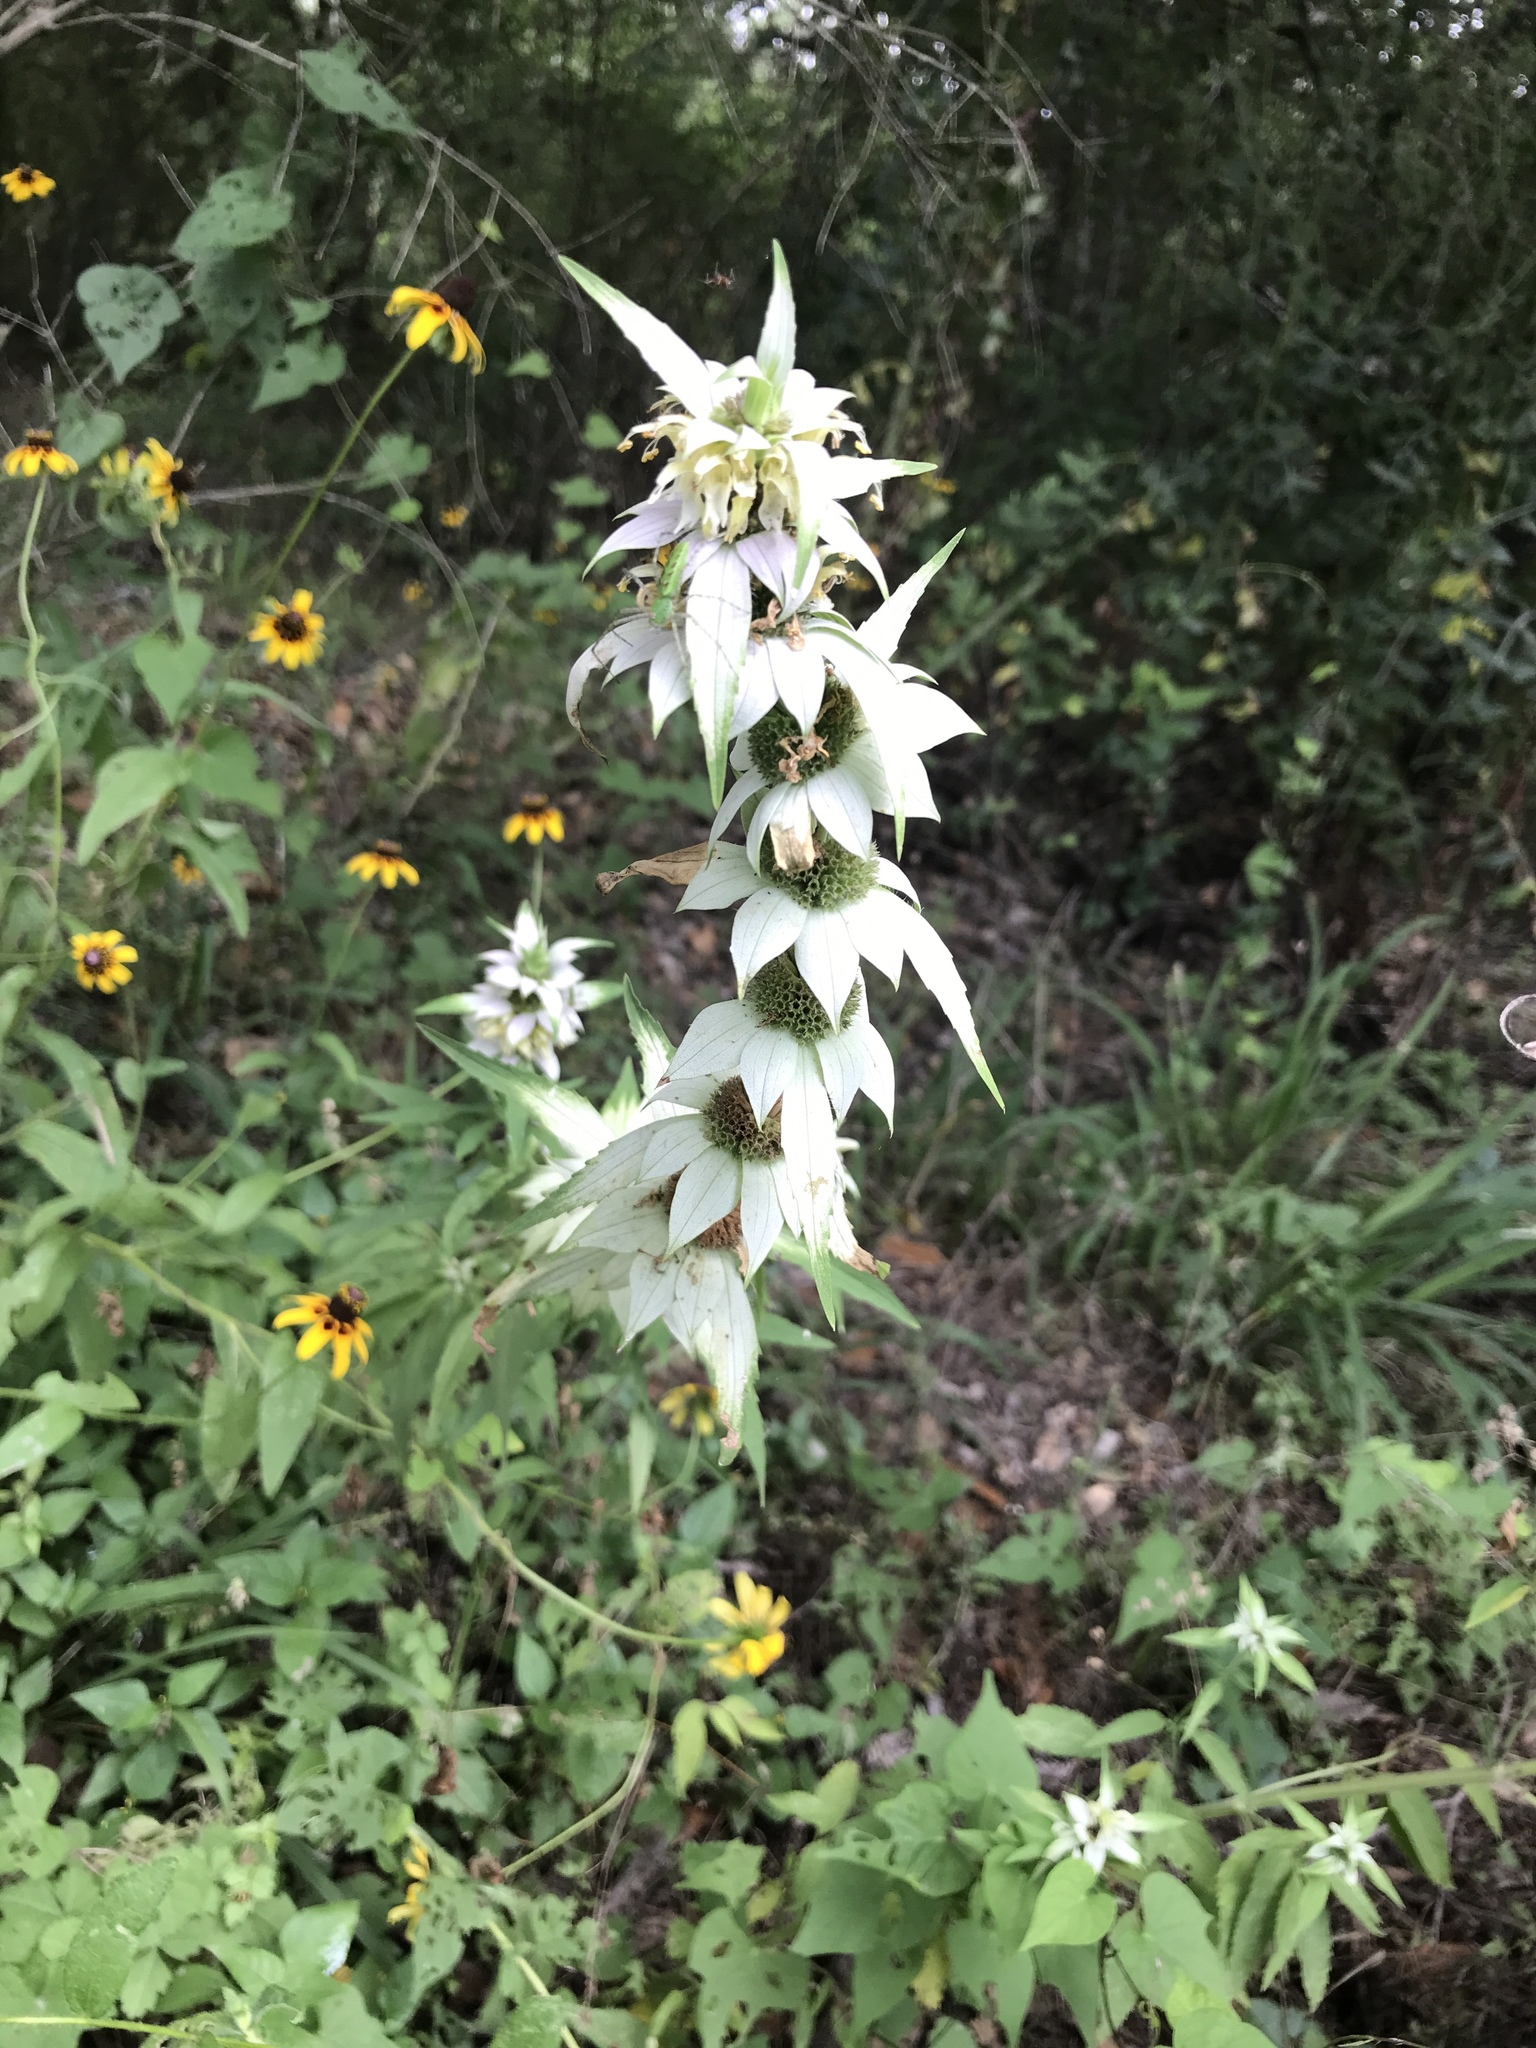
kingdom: Plantae
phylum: Tracheophyta
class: Magnoliopsida
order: Lamiales
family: Lamiaceae
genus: Monarda
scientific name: Monarda punctata
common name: Dotted monarda
